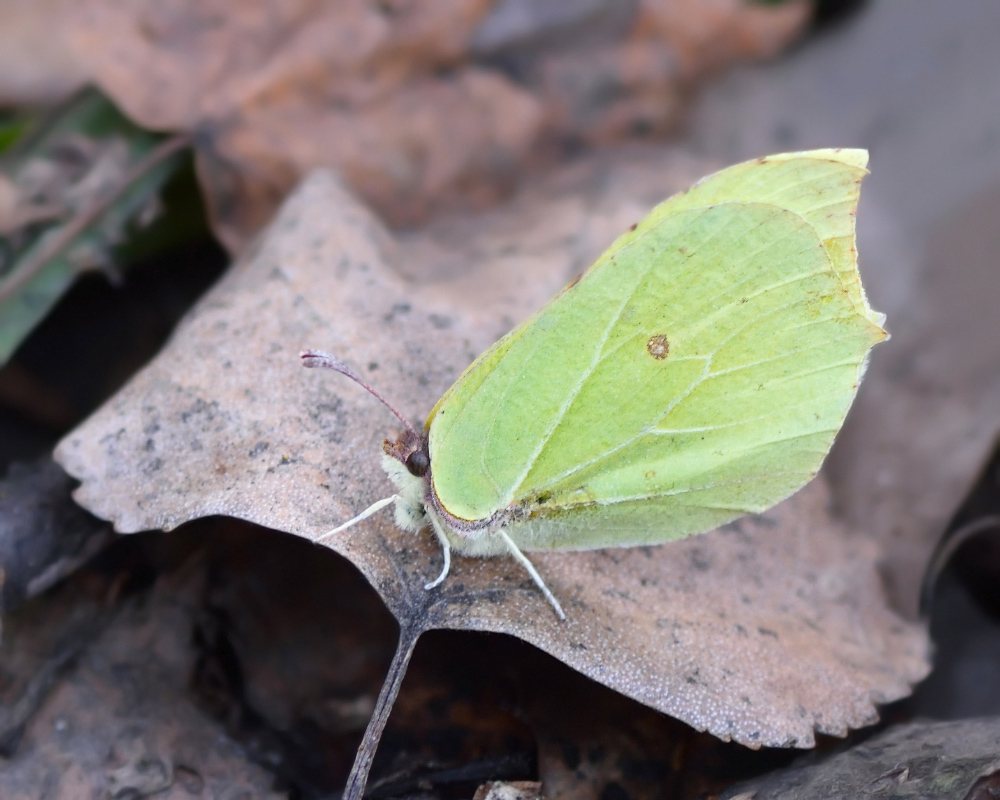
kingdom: Animalia
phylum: Arthropoda
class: Insecta
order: Lepidoptera
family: Pieridae
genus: Gonepteryx
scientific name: Gonepteryx rhamni
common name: Brimstone
